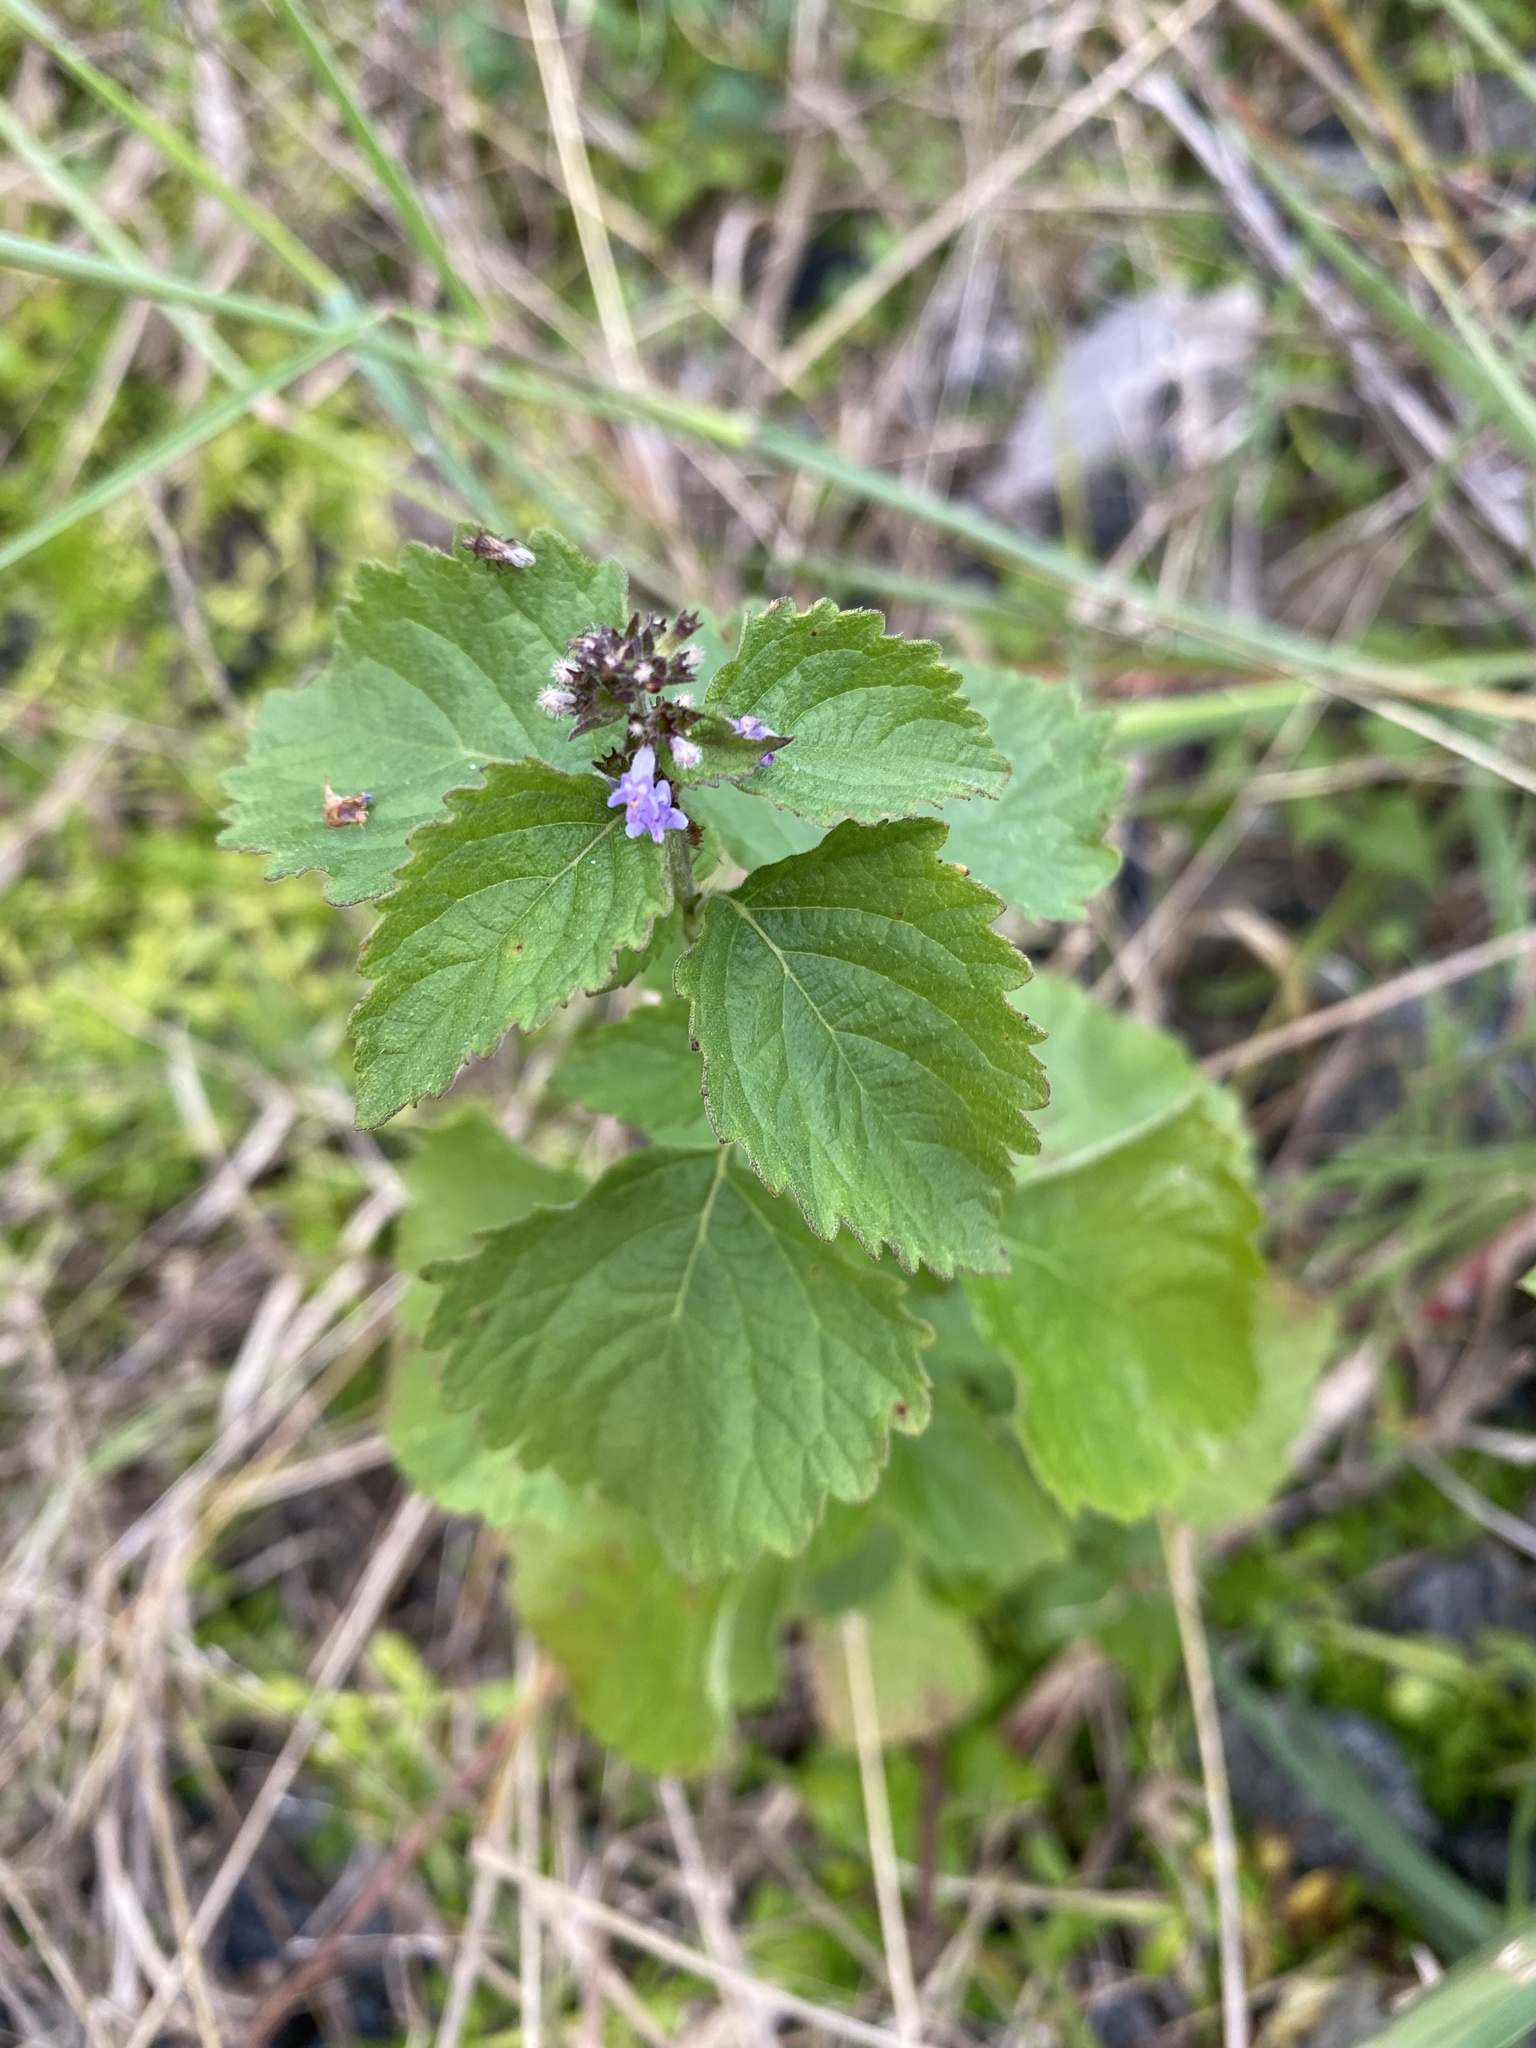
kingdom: Plantae
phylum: Tracheophyta
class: Magnoliopsida
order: Lamiales
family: Lamiaceae
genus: Cantinoa
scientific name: Cantinoa mutabilis
